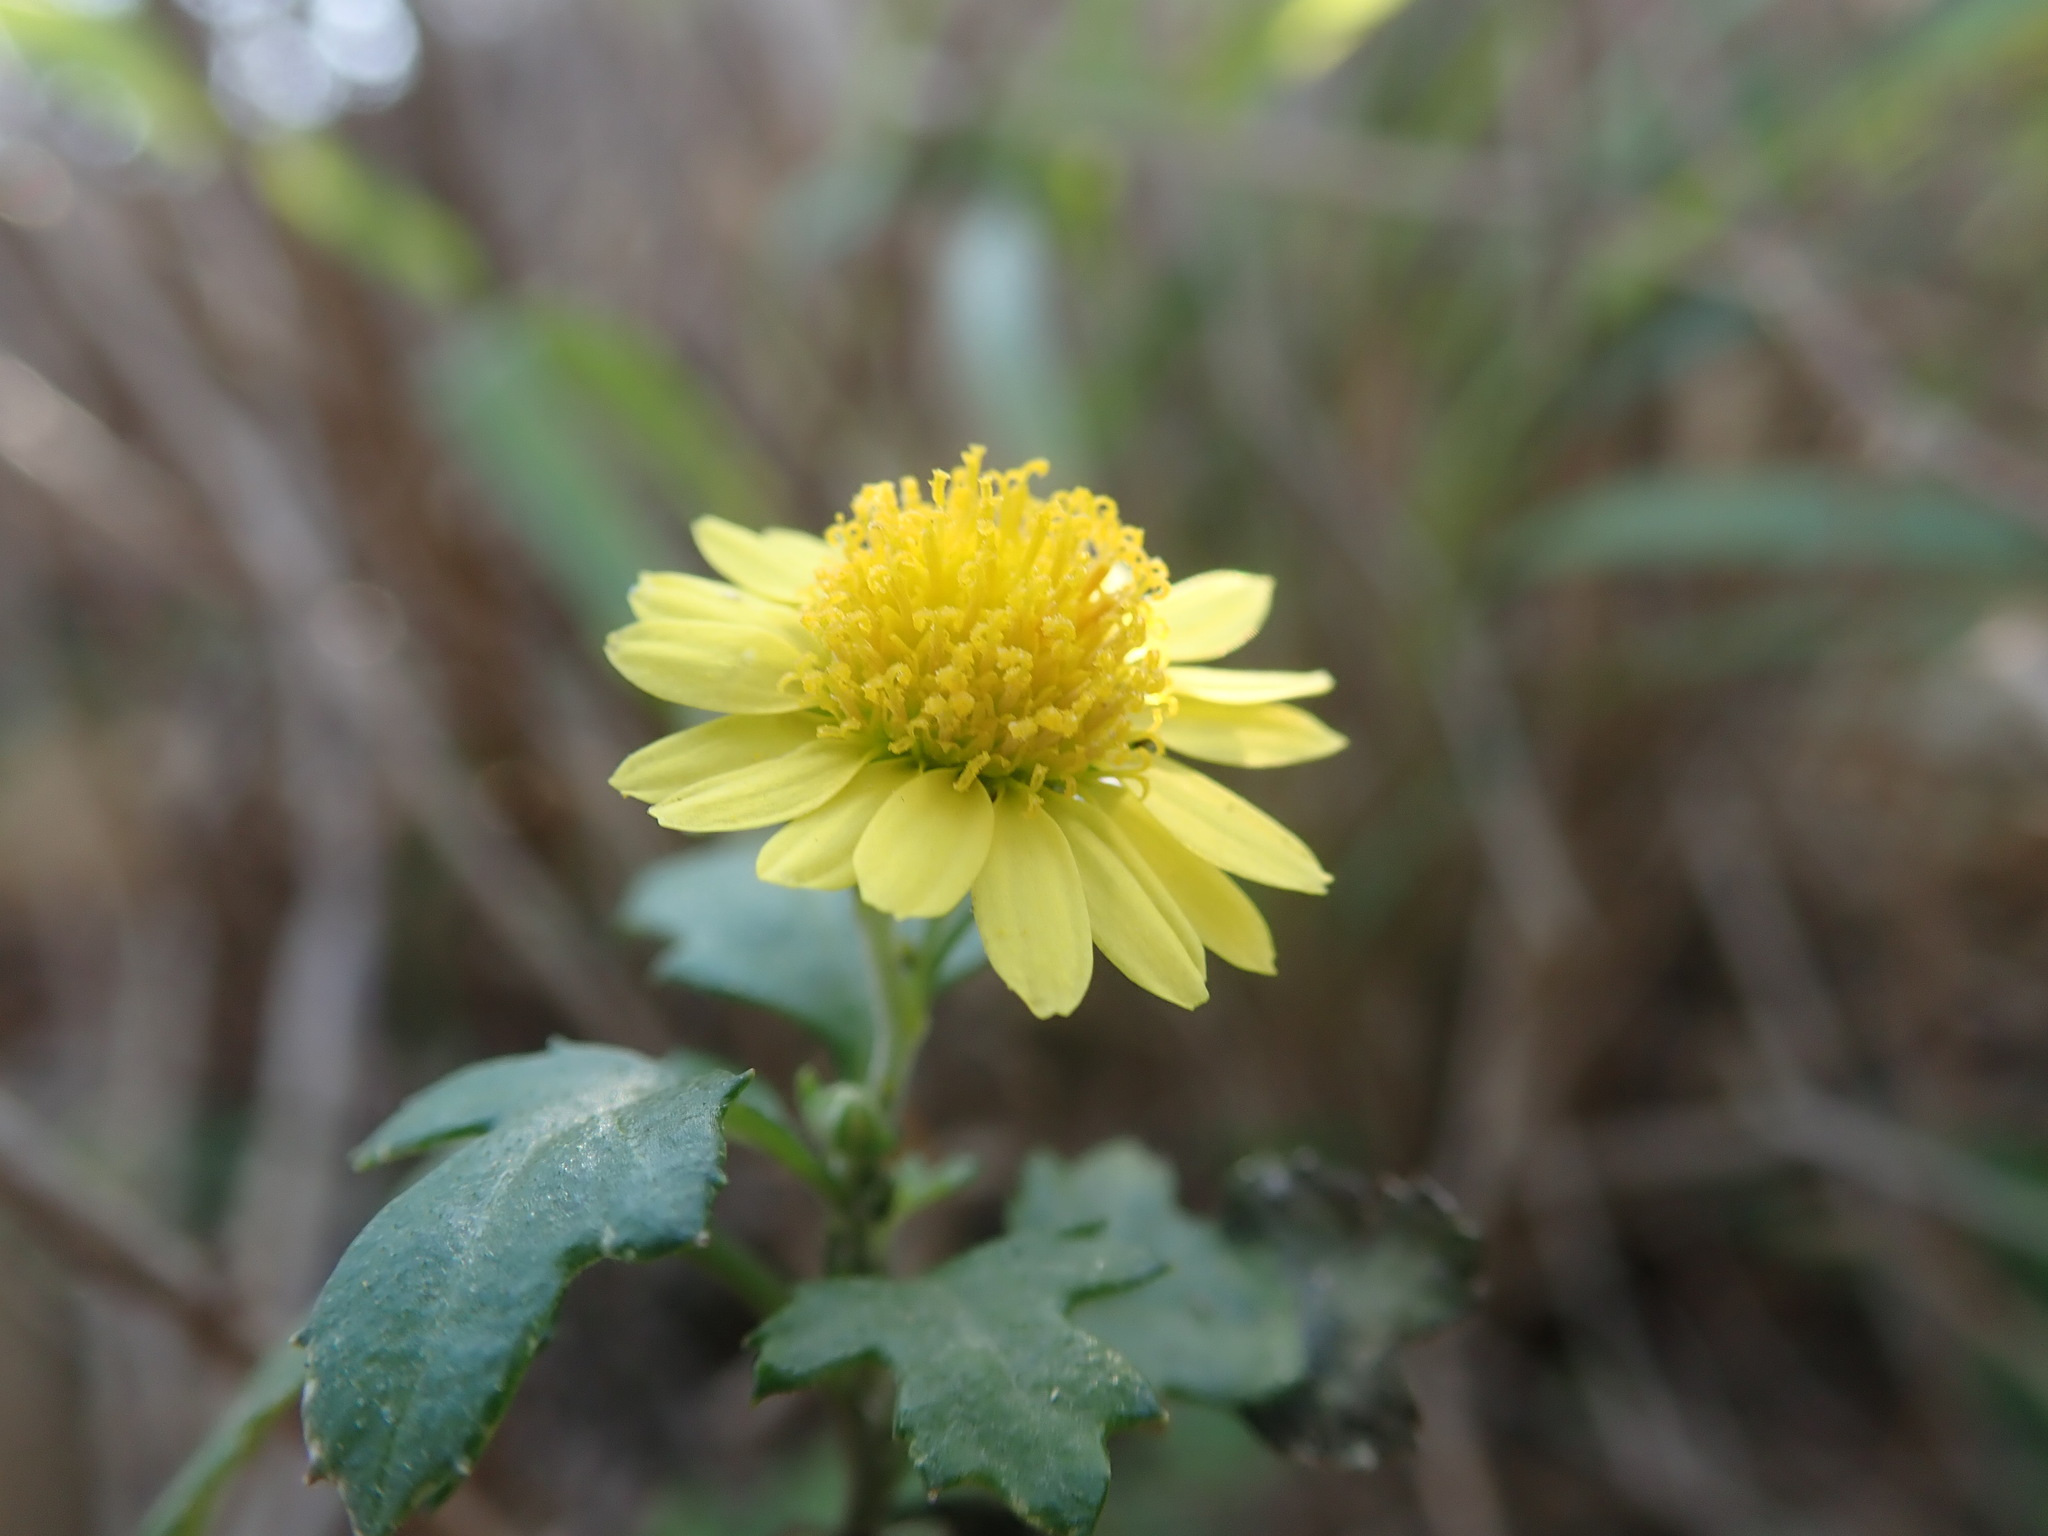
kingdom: Plantae
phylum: Tracheophyta
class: Magnoliopsida
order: Asterales
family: Asteraceae
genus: Chrysanthemum
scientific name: Chrysanthemum lavandulifolium
